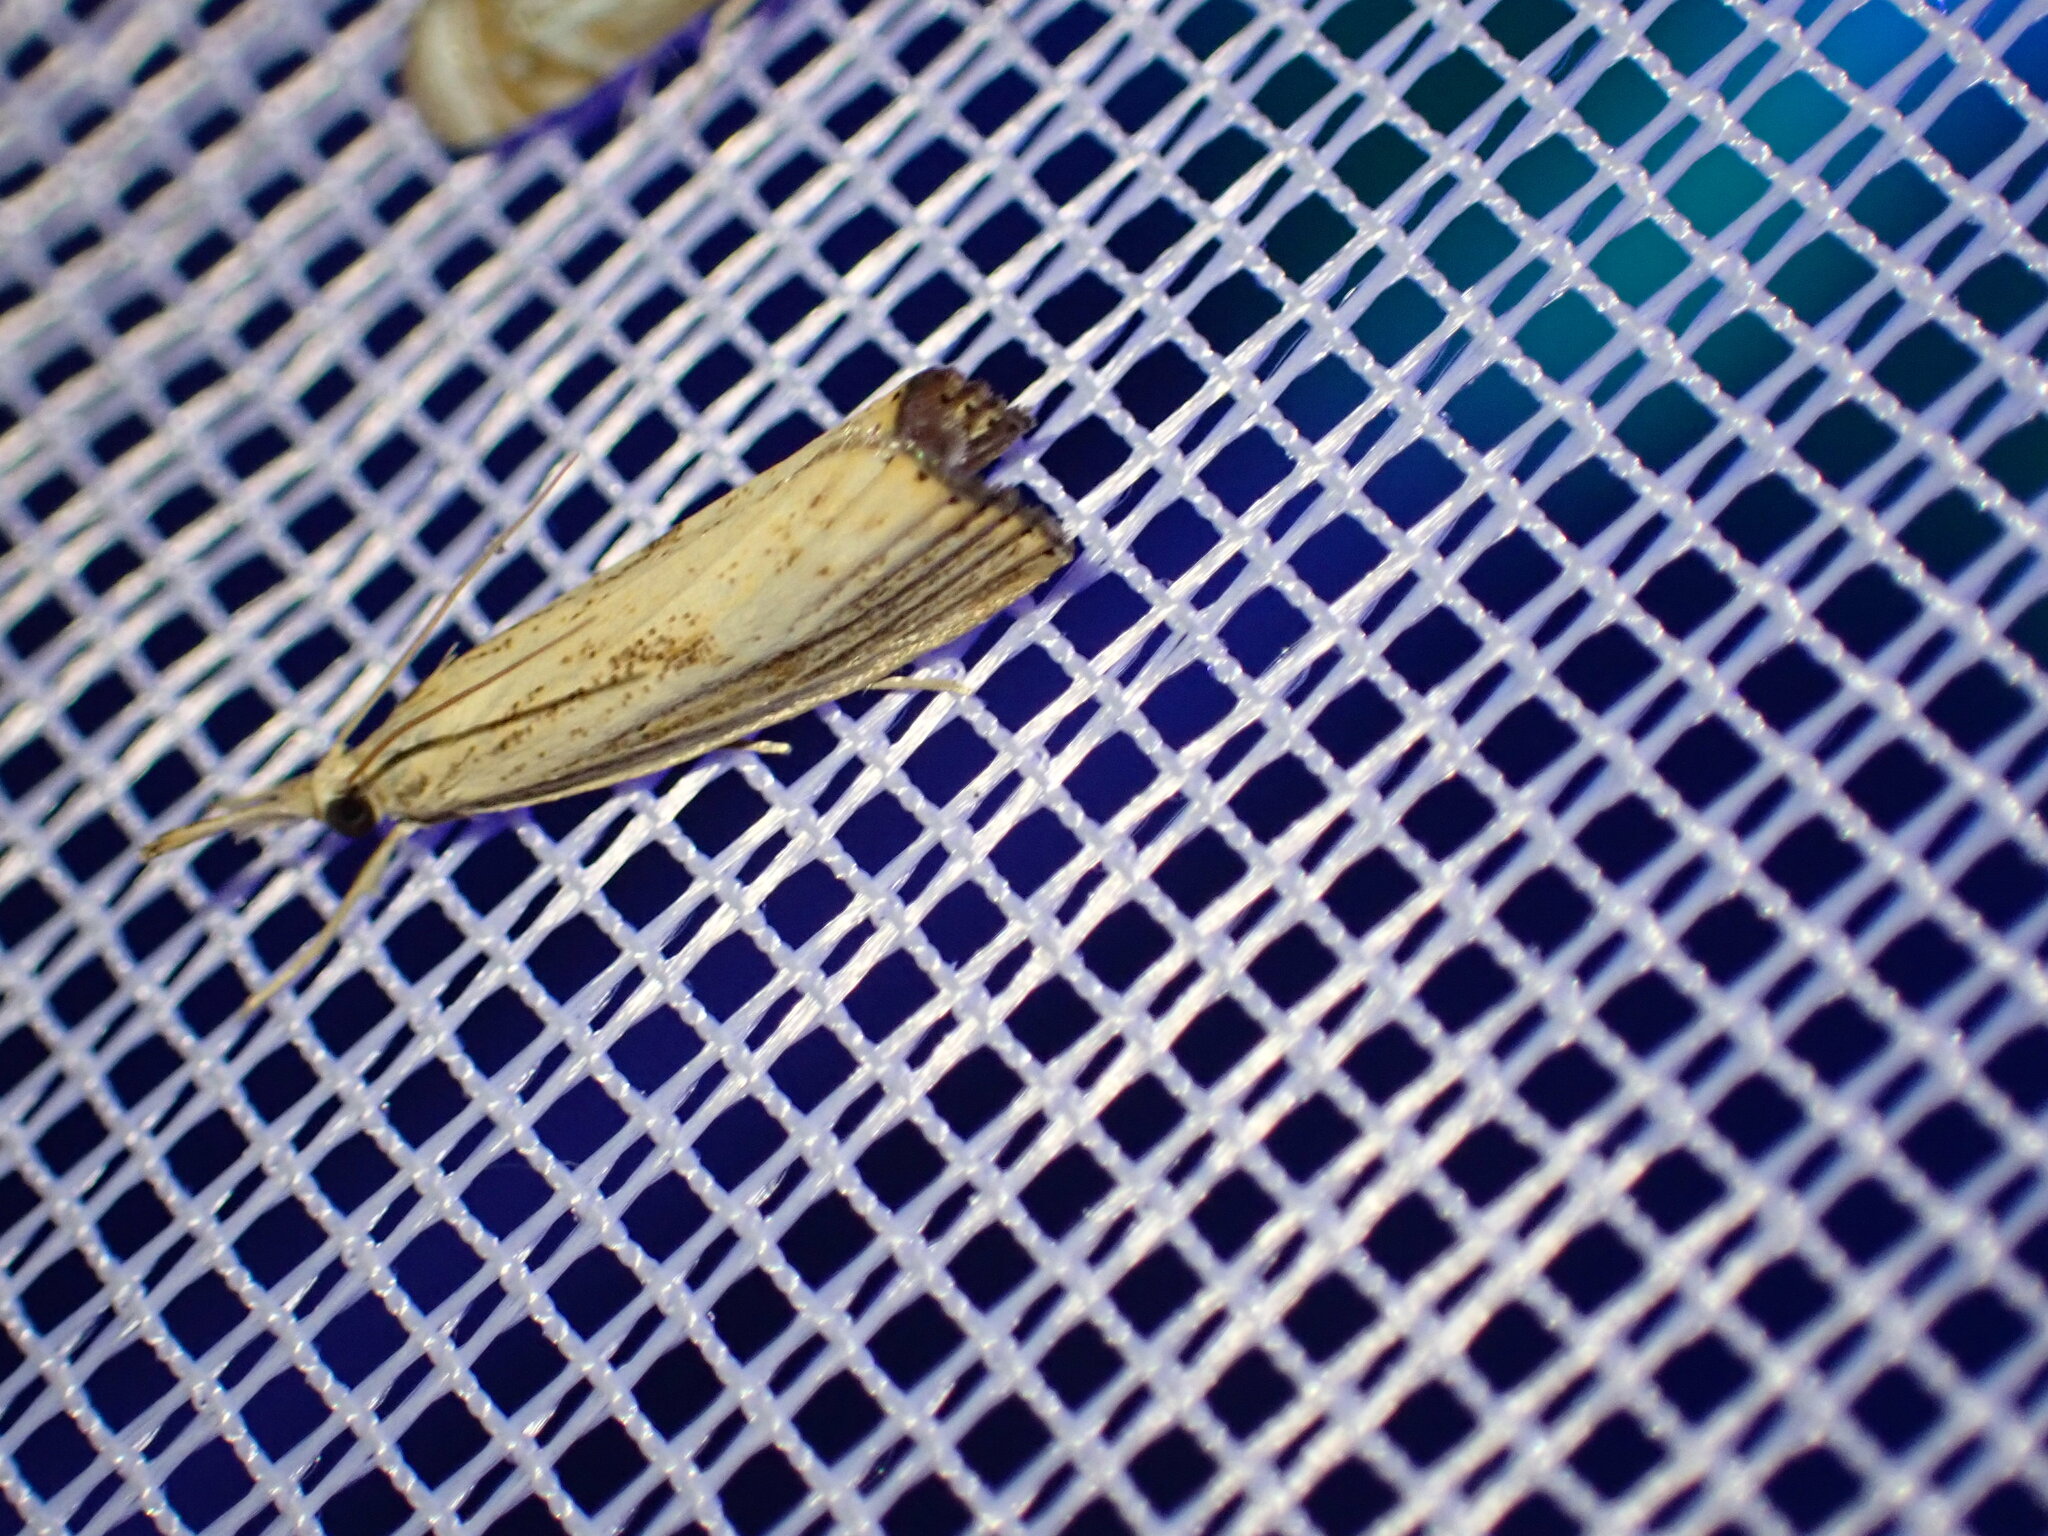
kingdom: Animalia
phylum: Arthropoda
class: Insecta
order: Lepidoptera
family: Crambidae
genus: Agriphila
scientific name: Agriphila ruricolellus
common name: Lesser vagabond sod webworm
